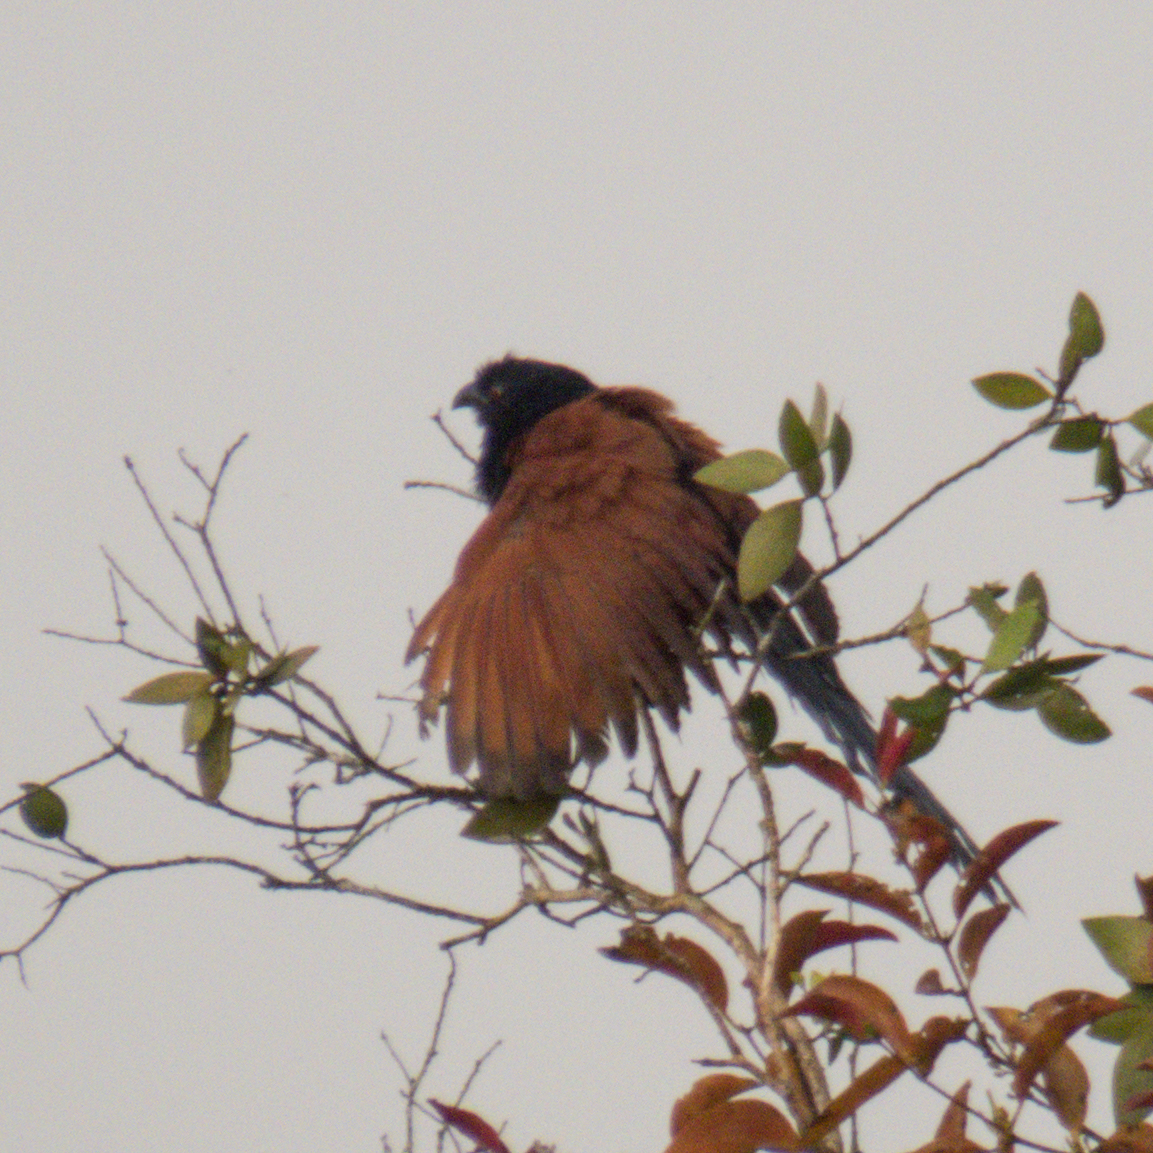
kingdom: Animalia
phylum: Chordata
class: Aves
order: Cuculiformes
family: Cuculidae
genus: Centropus
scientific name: Centropus sinensis
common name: Greater coucal
